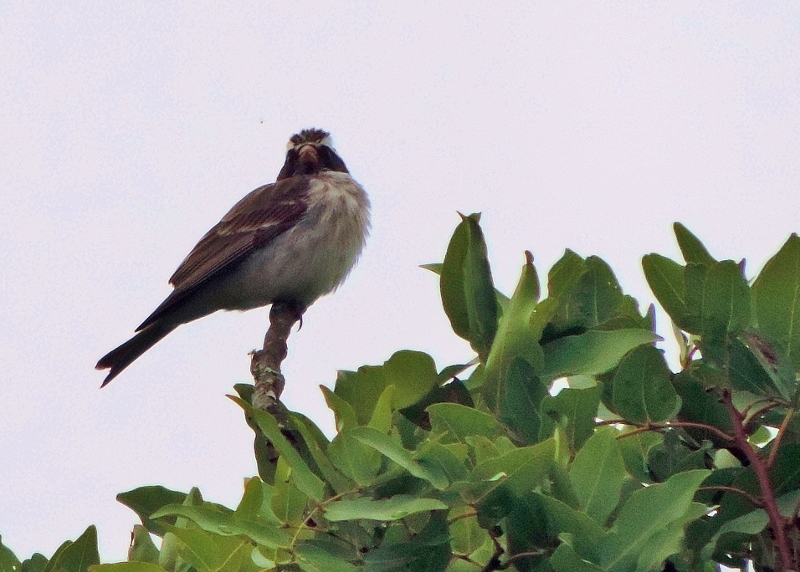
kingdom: Animalia
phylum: Chordata
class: Aves
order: Passeriformes
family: Fringillidae
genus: Crithagra
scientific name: Crithagra mennelli
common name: Black-eared seedeater
